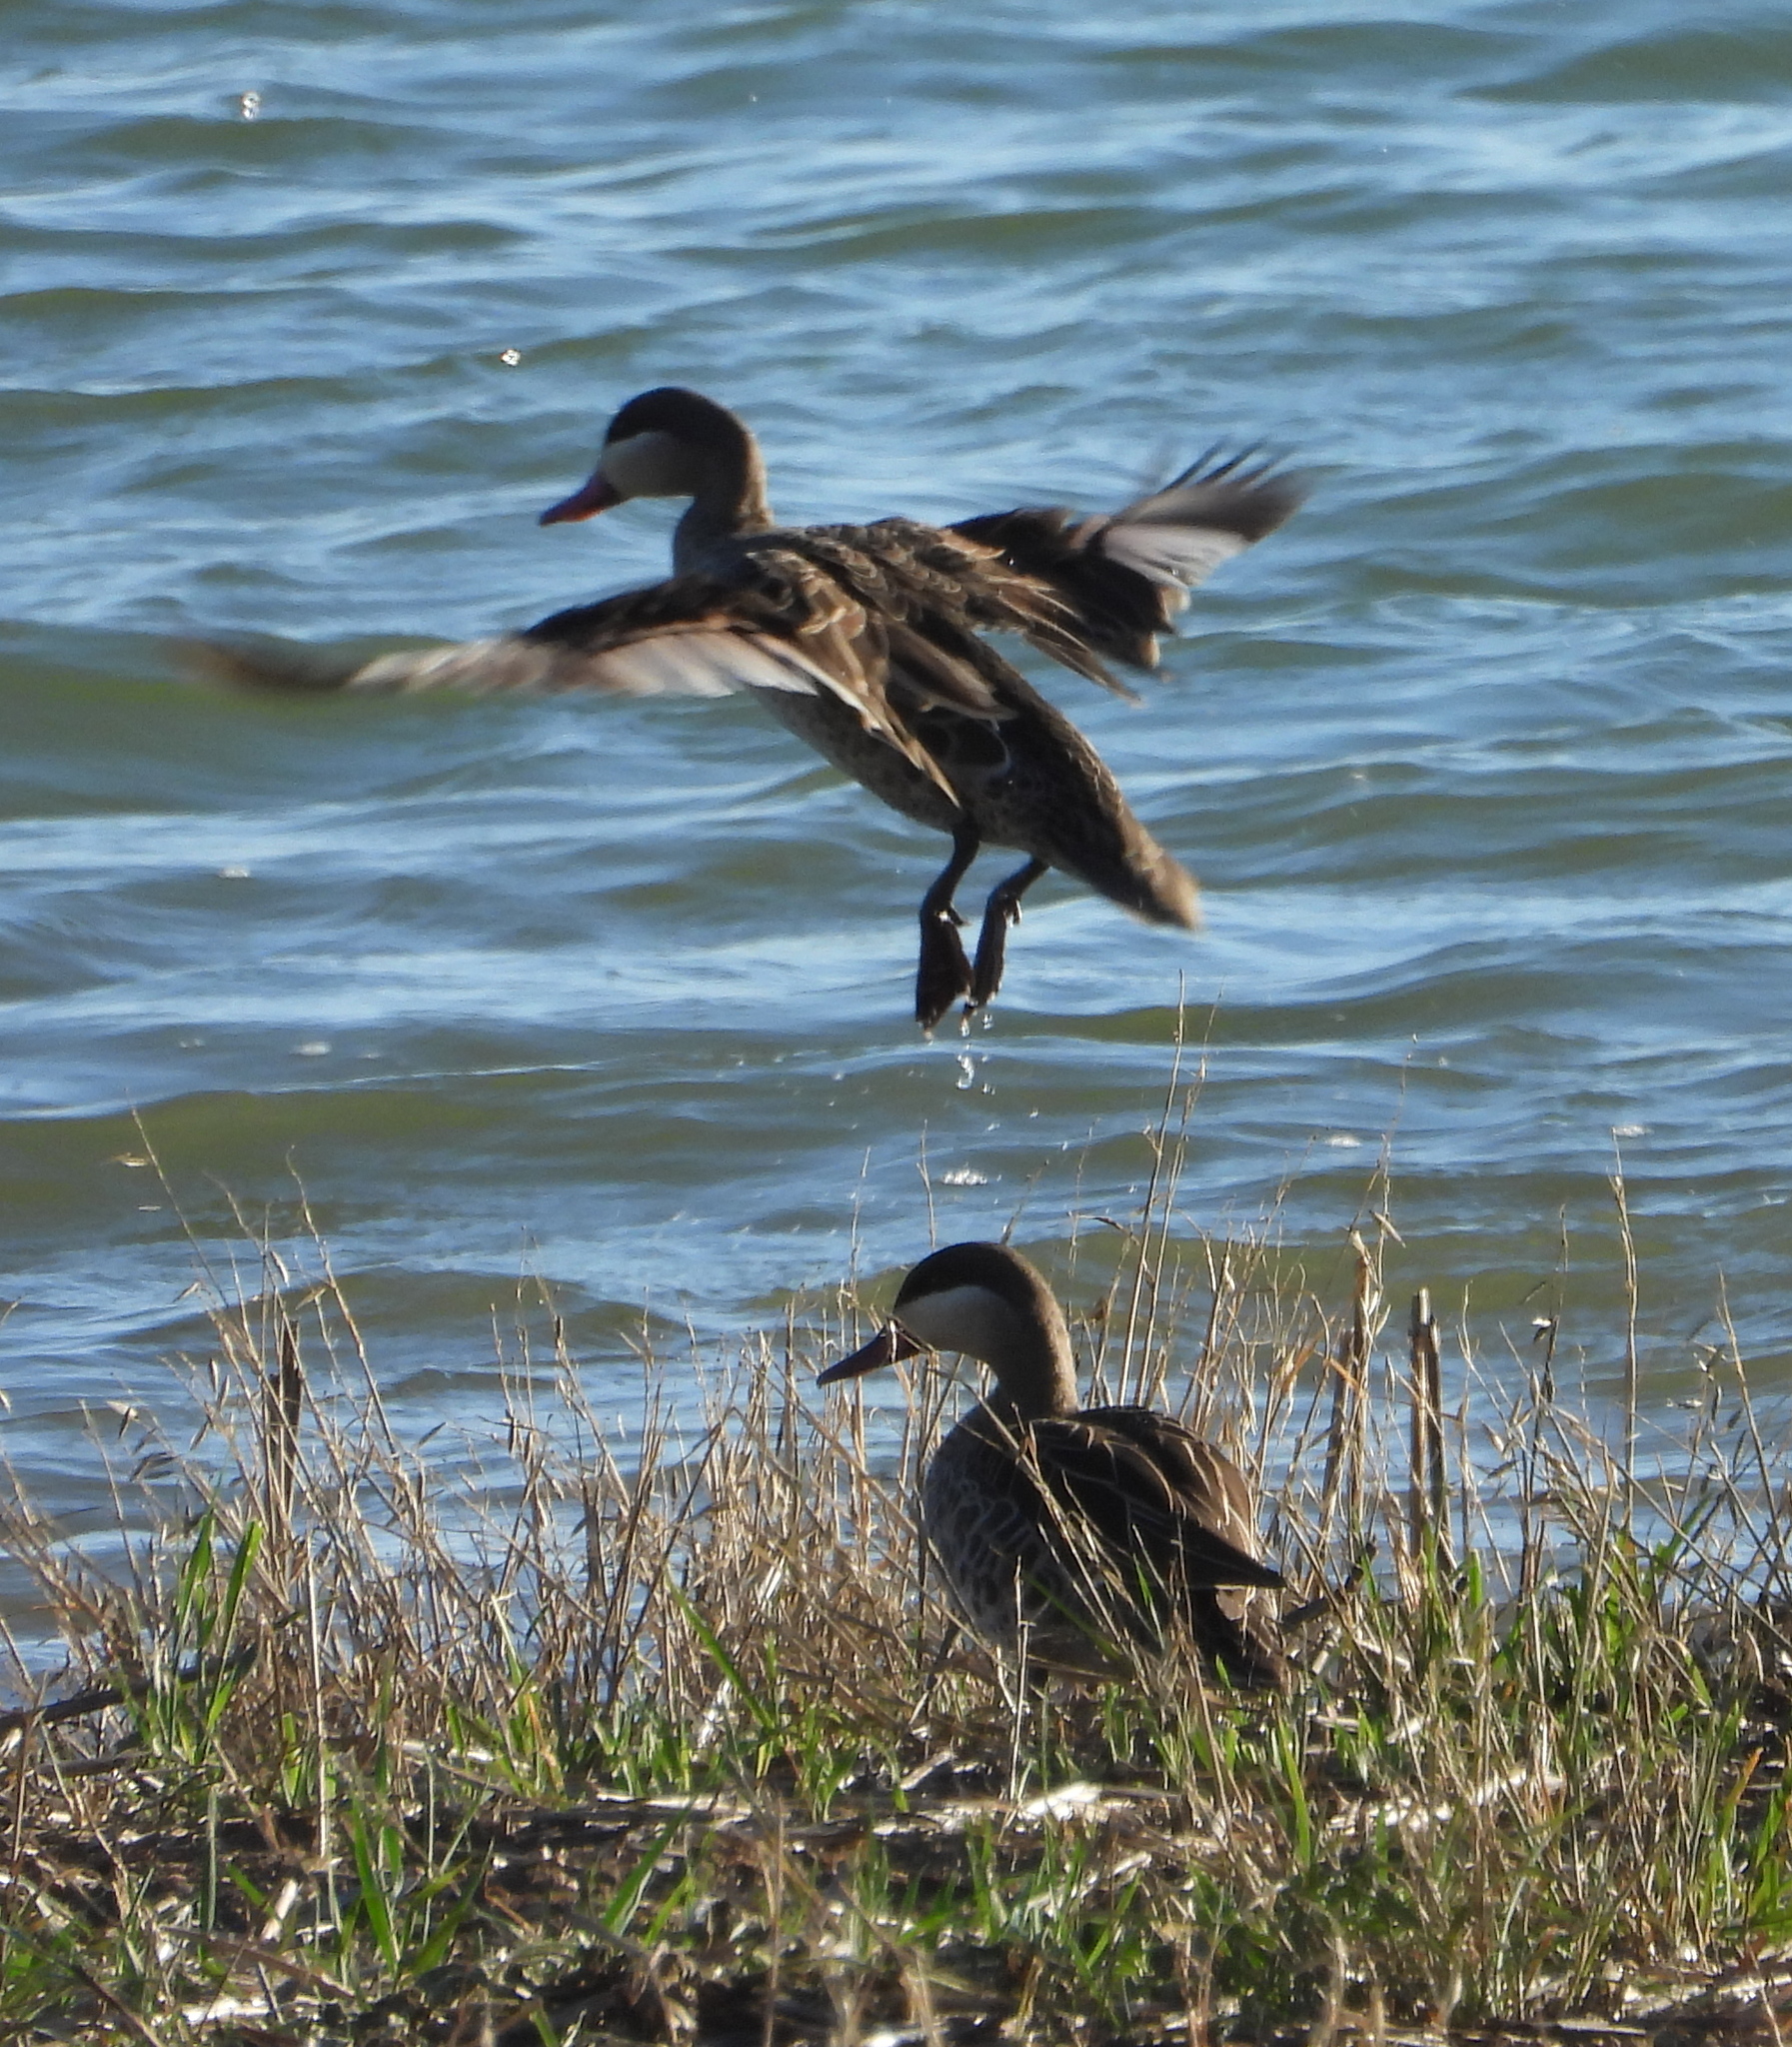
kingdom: Animalia
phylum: Chordata
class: Aves
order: Anseriformes
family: Anatidae
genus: Anas
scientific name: Anas erythrorhyncha
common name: Red-billed teal
